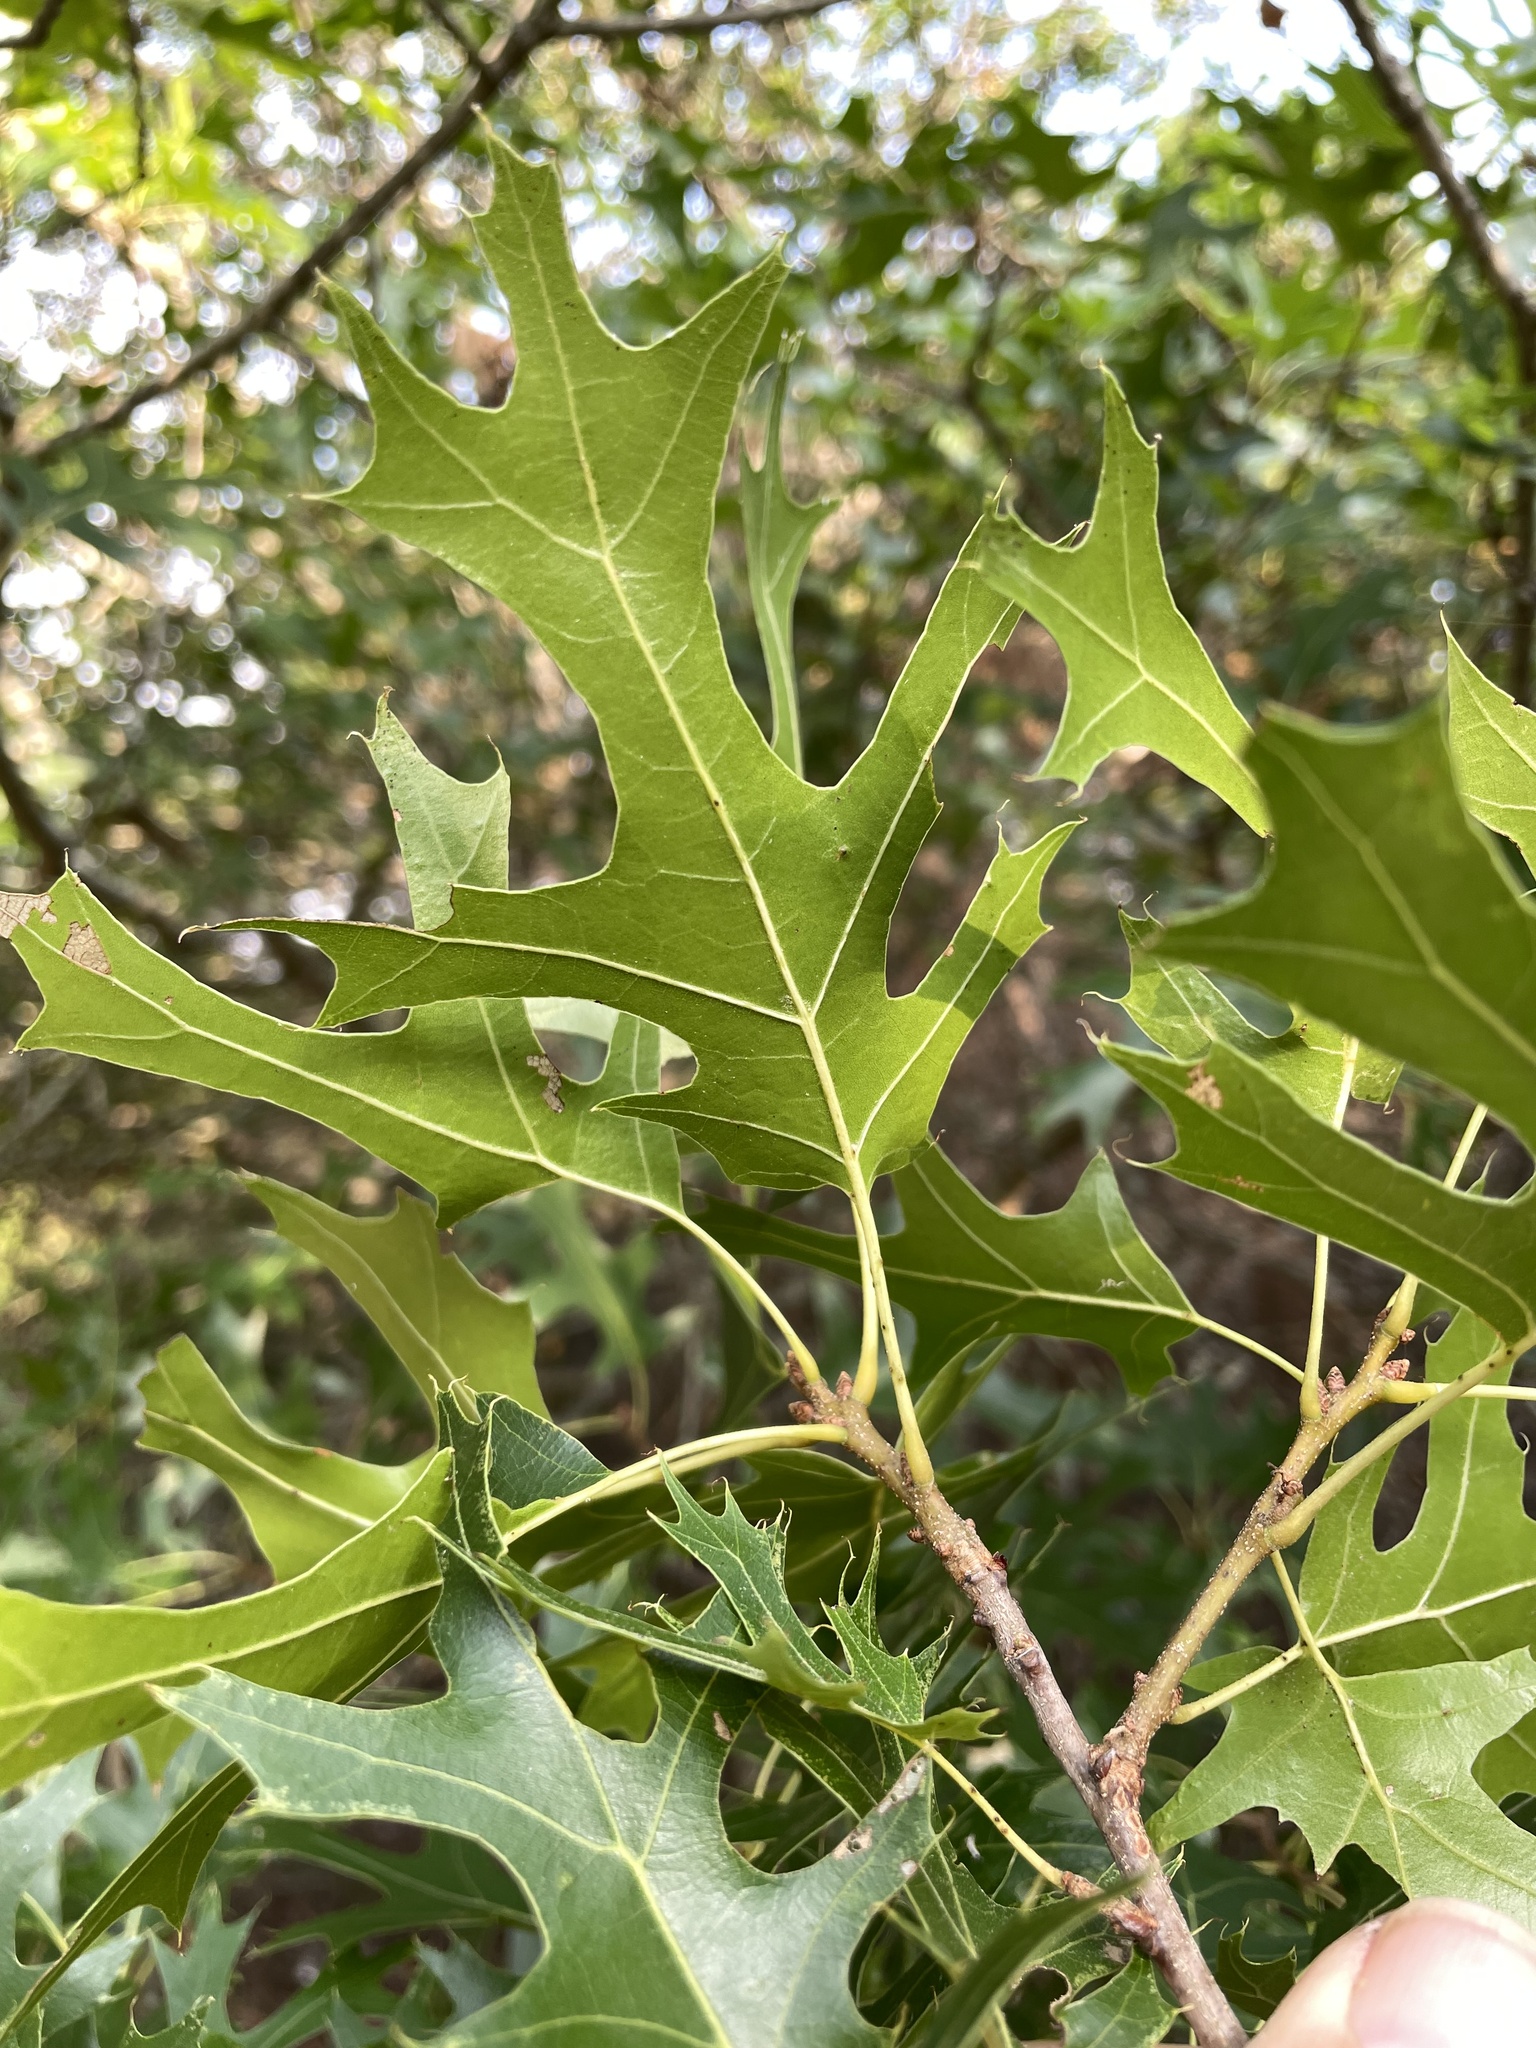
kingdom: Plantae
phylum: Tracheophyta
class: Magnoliopsida
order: Fagales
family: Fagaceae
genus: Quercus
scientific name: Quercus buckleyi
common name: Buckley oak
